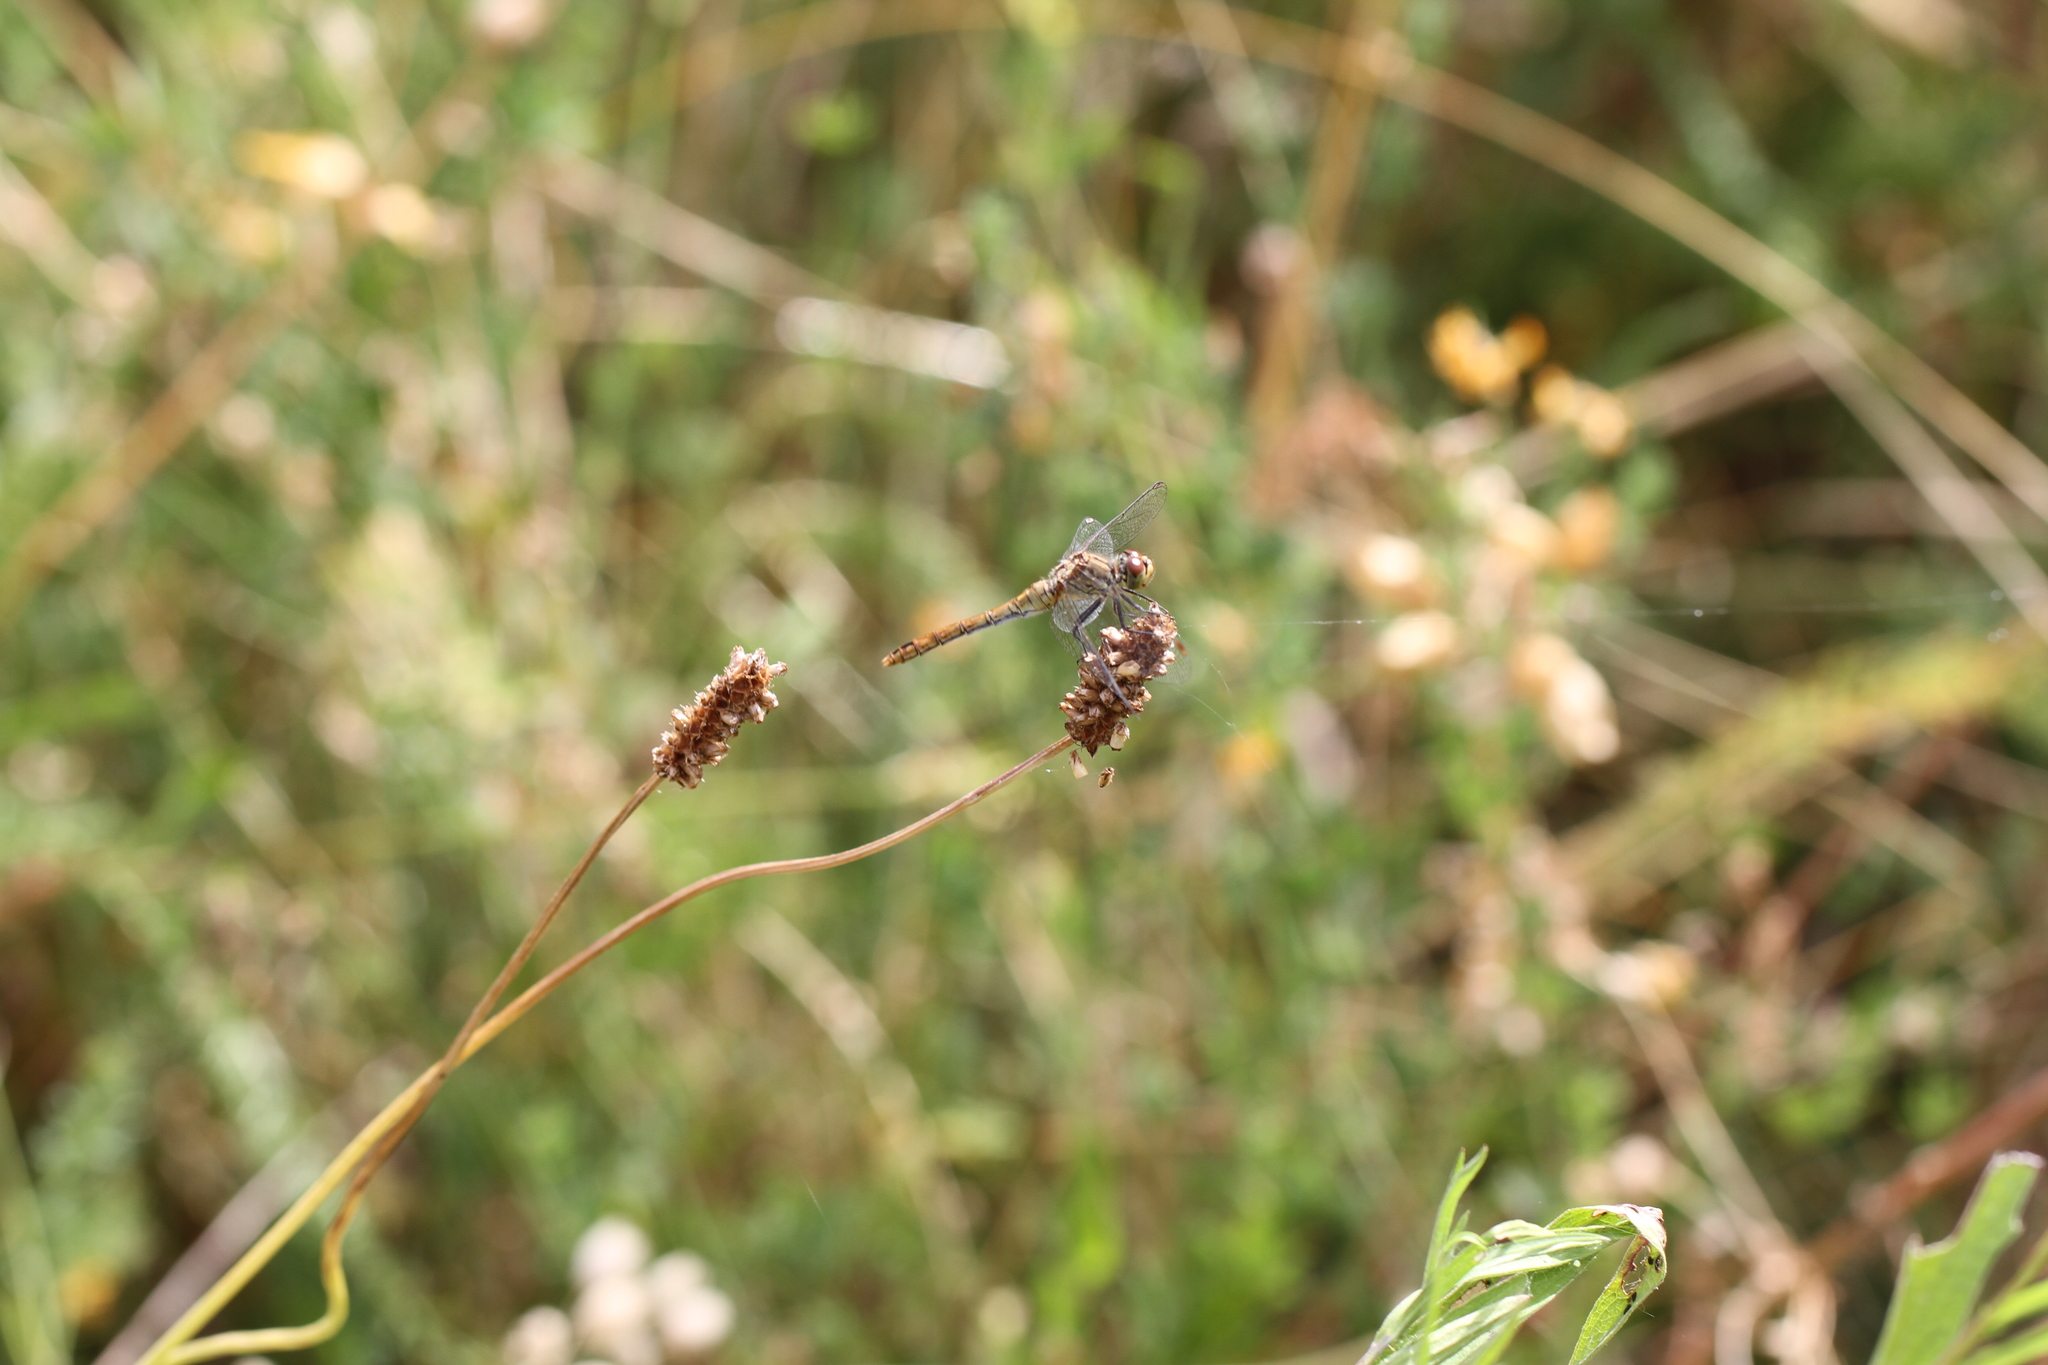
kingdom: Animalia
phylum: Arthropoda
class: Insecta
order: Odonata
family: Libellulidae
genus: Sympetrum
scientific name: Sympetrum sanguineum
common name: Ruddy darter
